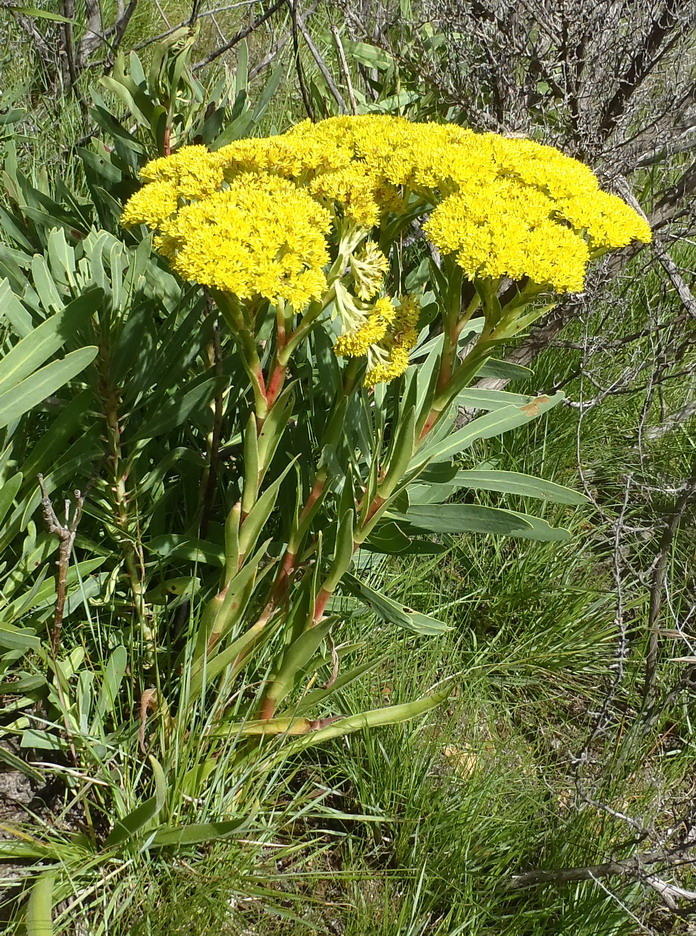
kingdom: Plantae
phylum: Tracheophyta
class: Magnoliopsida
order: Saxifragales
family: Crassulaceae
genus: Crassula
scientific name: Crassula vaginata
